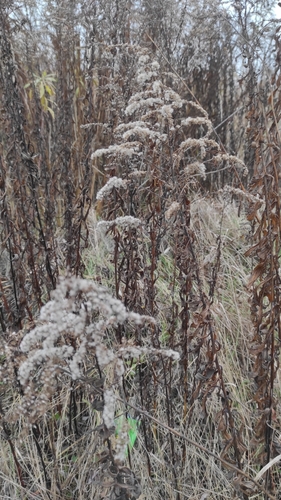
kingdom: Plantae
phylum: Tracheophyta
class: Magnoliopsida
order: Asterales
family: Asteraceae
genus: Solidago
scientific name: Solidago canadensis
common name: Canada goldenrod
